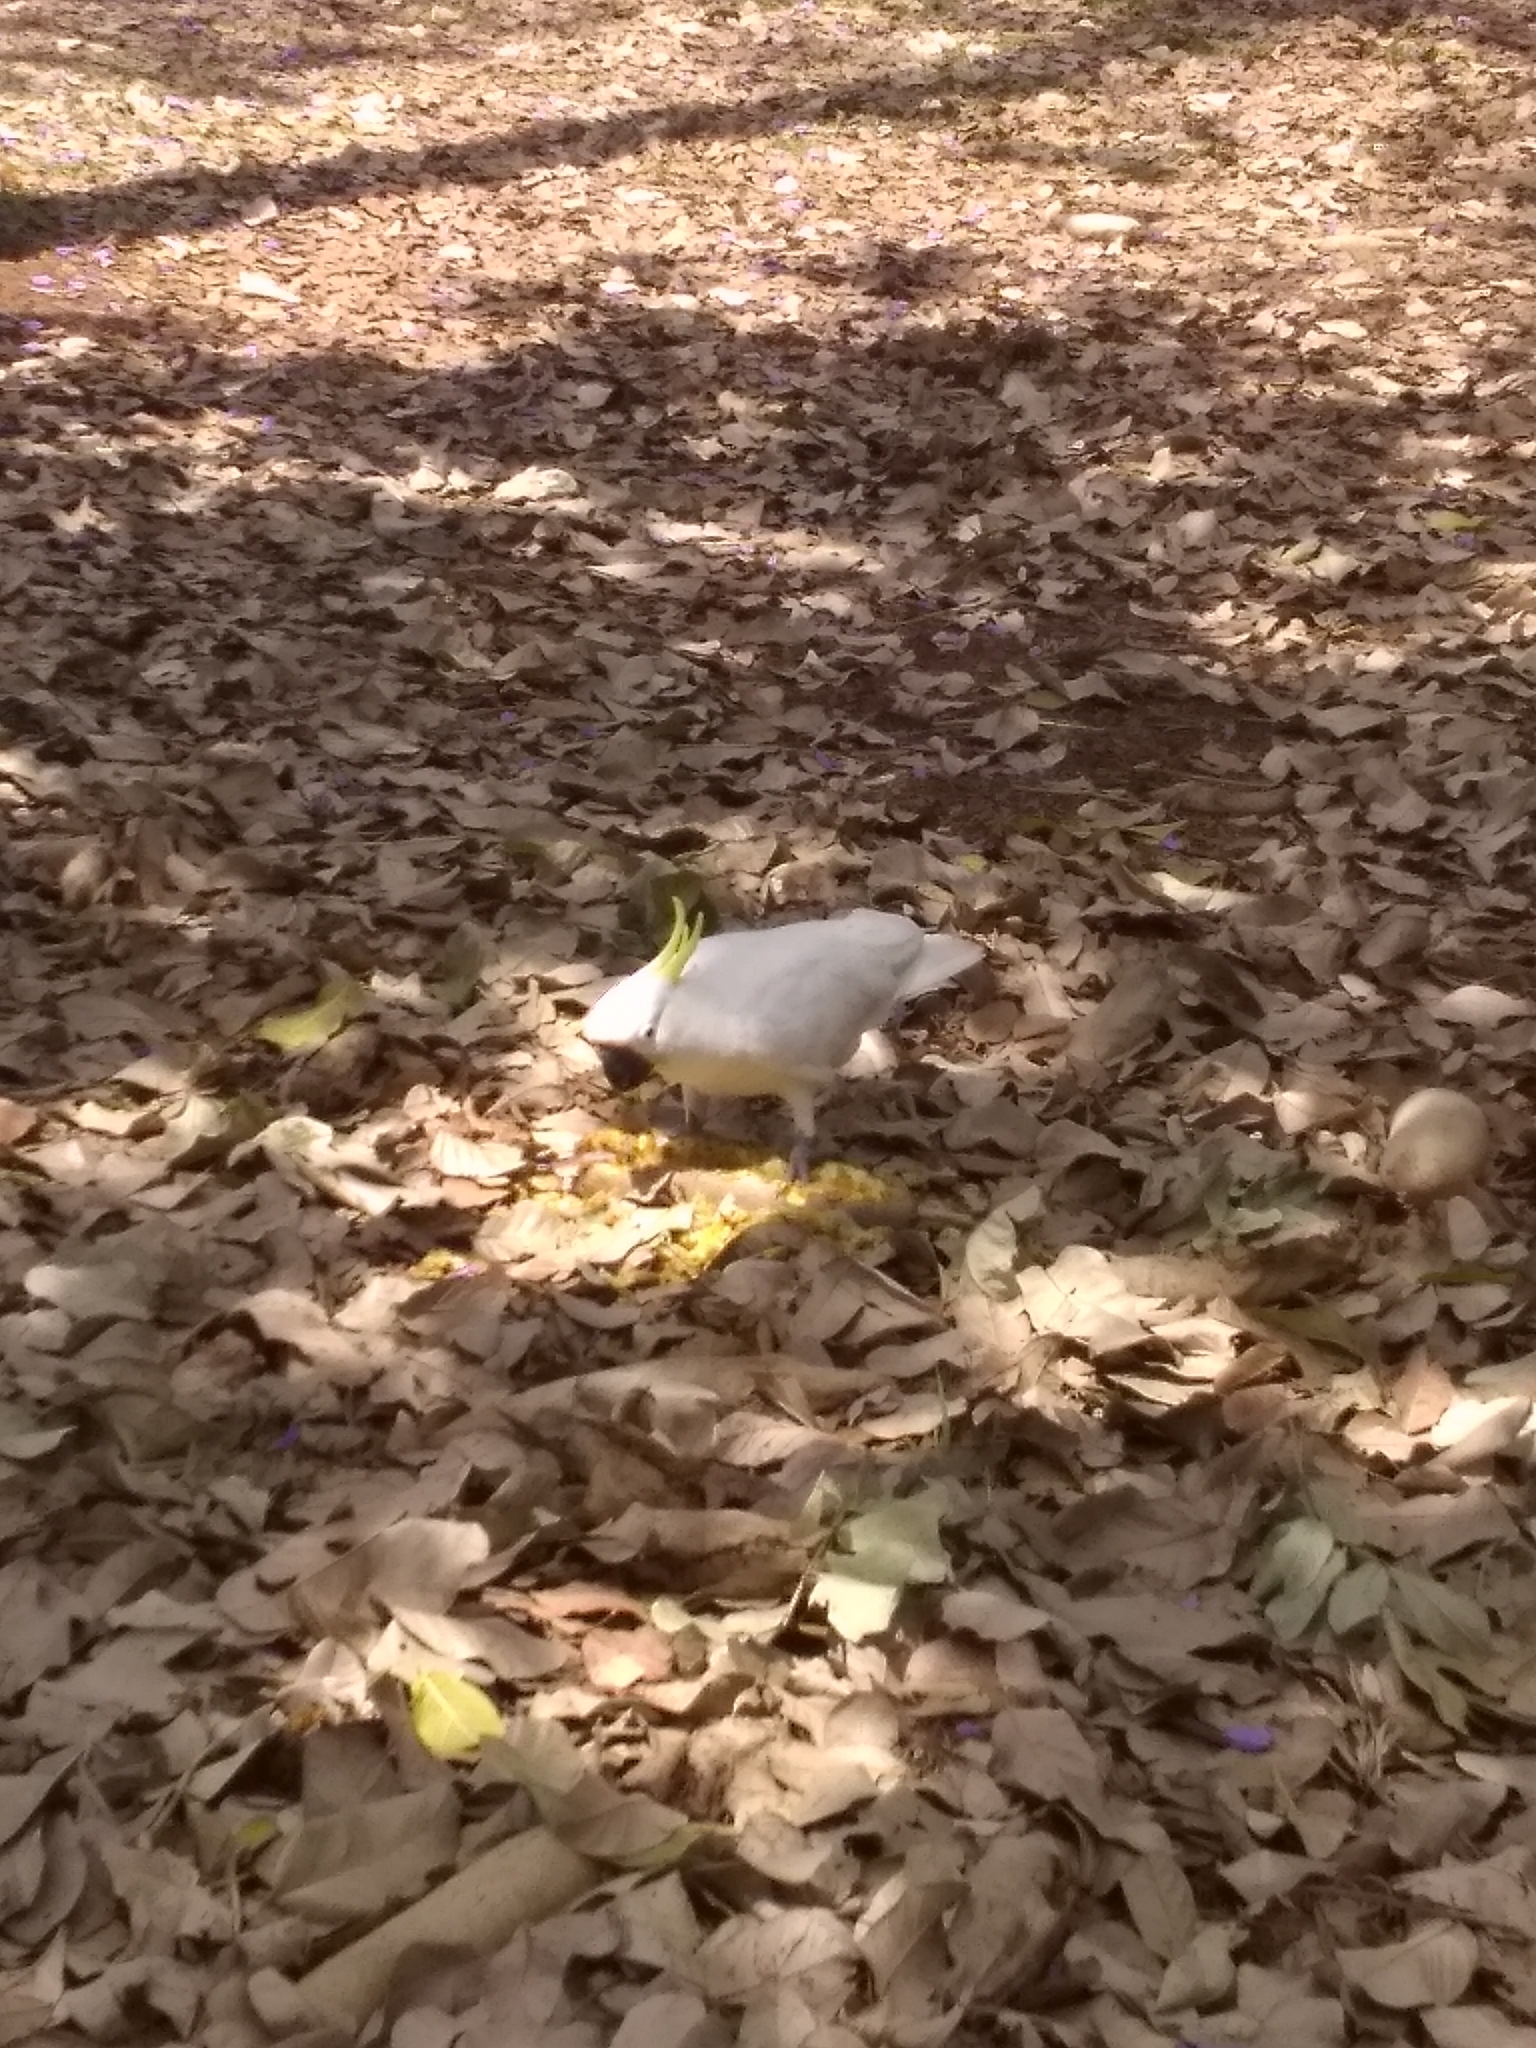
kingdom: Animalia
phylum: Chordata
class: Aves
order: Psittaciformes
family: Psittacidae
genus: Cacatua
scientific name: Cacatua galerita
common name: Sulphur-crested cockatoo
